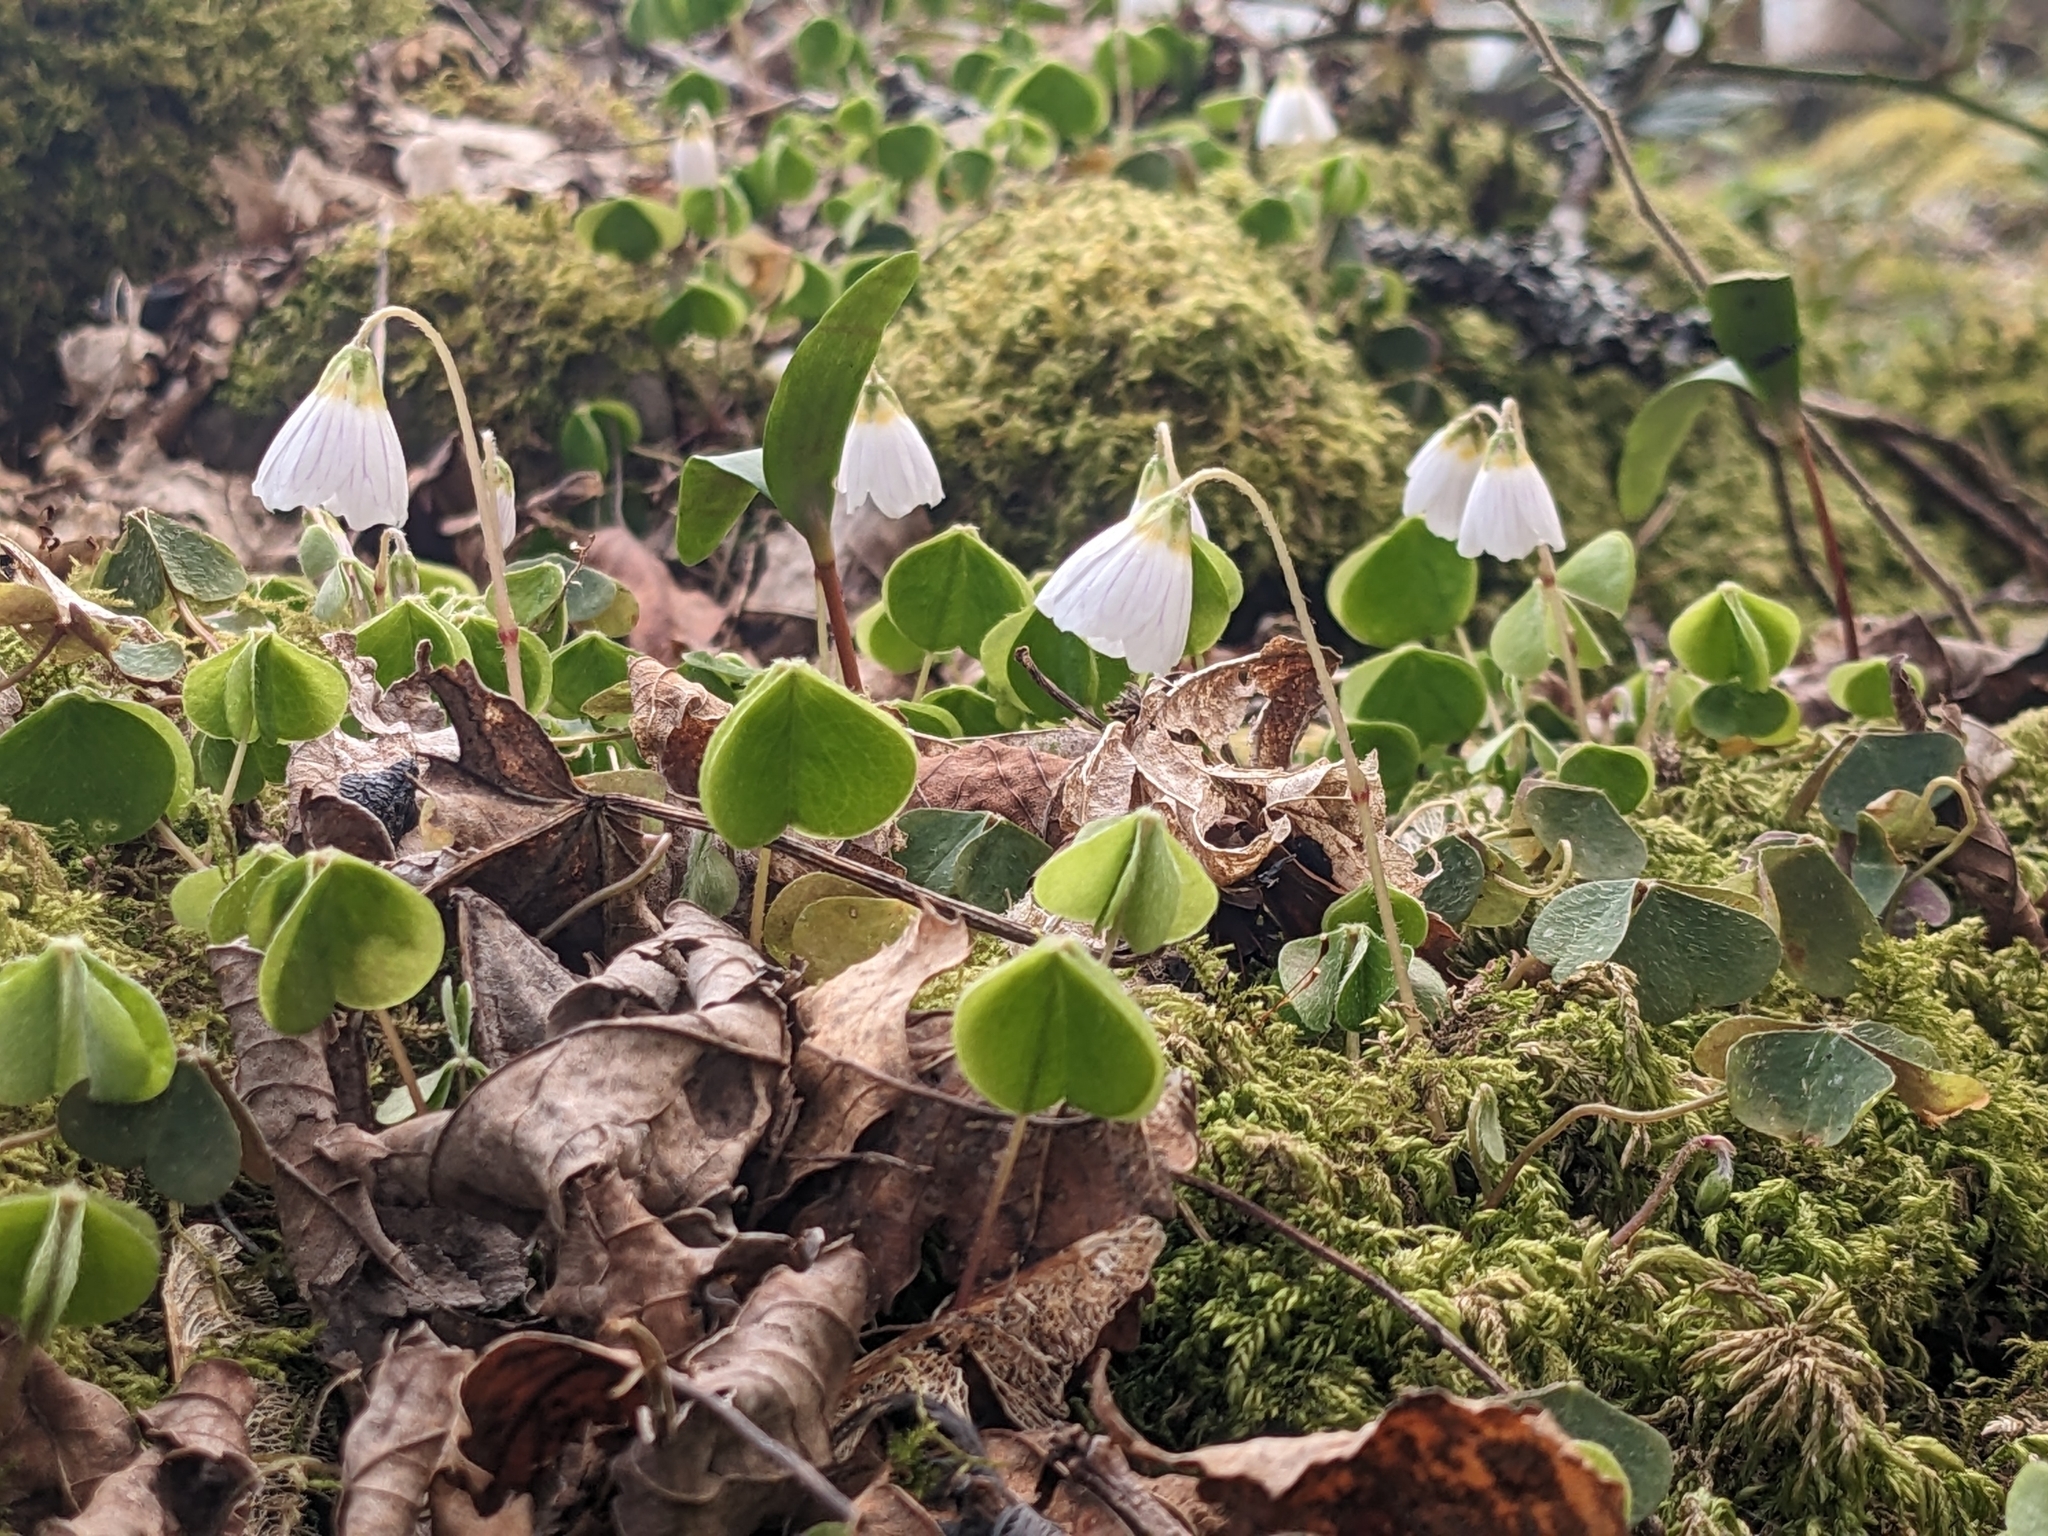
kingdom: Plantae
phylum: Tracheophyta
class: Magnoliopsida
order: Oxalidales
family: Oxalidaceae
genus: Oxalis
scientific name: Oxalis acetosella
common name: Wood-sorrel
